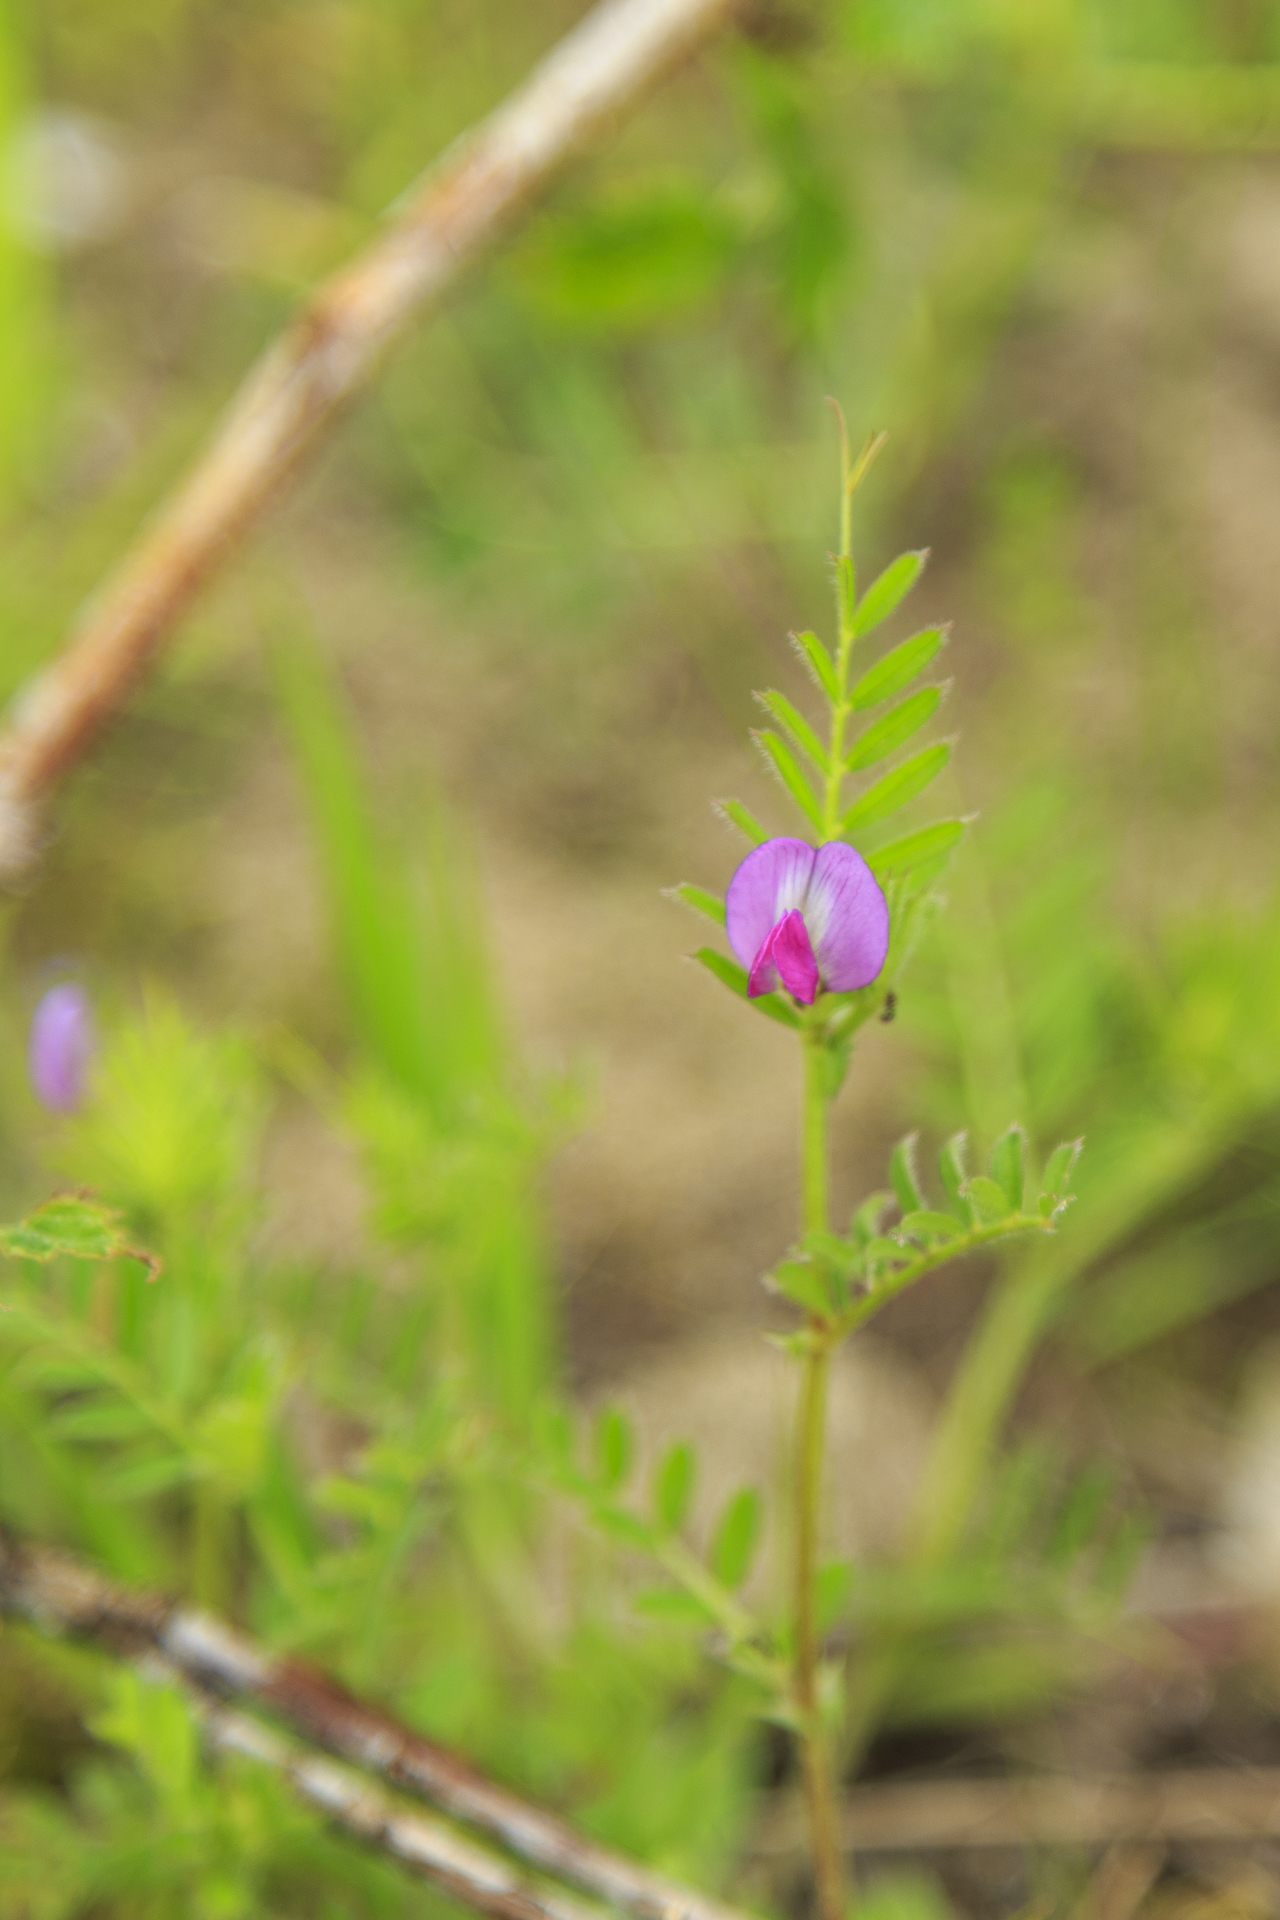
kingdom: Plantae
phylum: Tracheophyta
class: Magnoliopsida
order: Fabales
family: Fabaceae
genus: Vicia
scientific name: Vicia sativa
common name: Garden vetch
